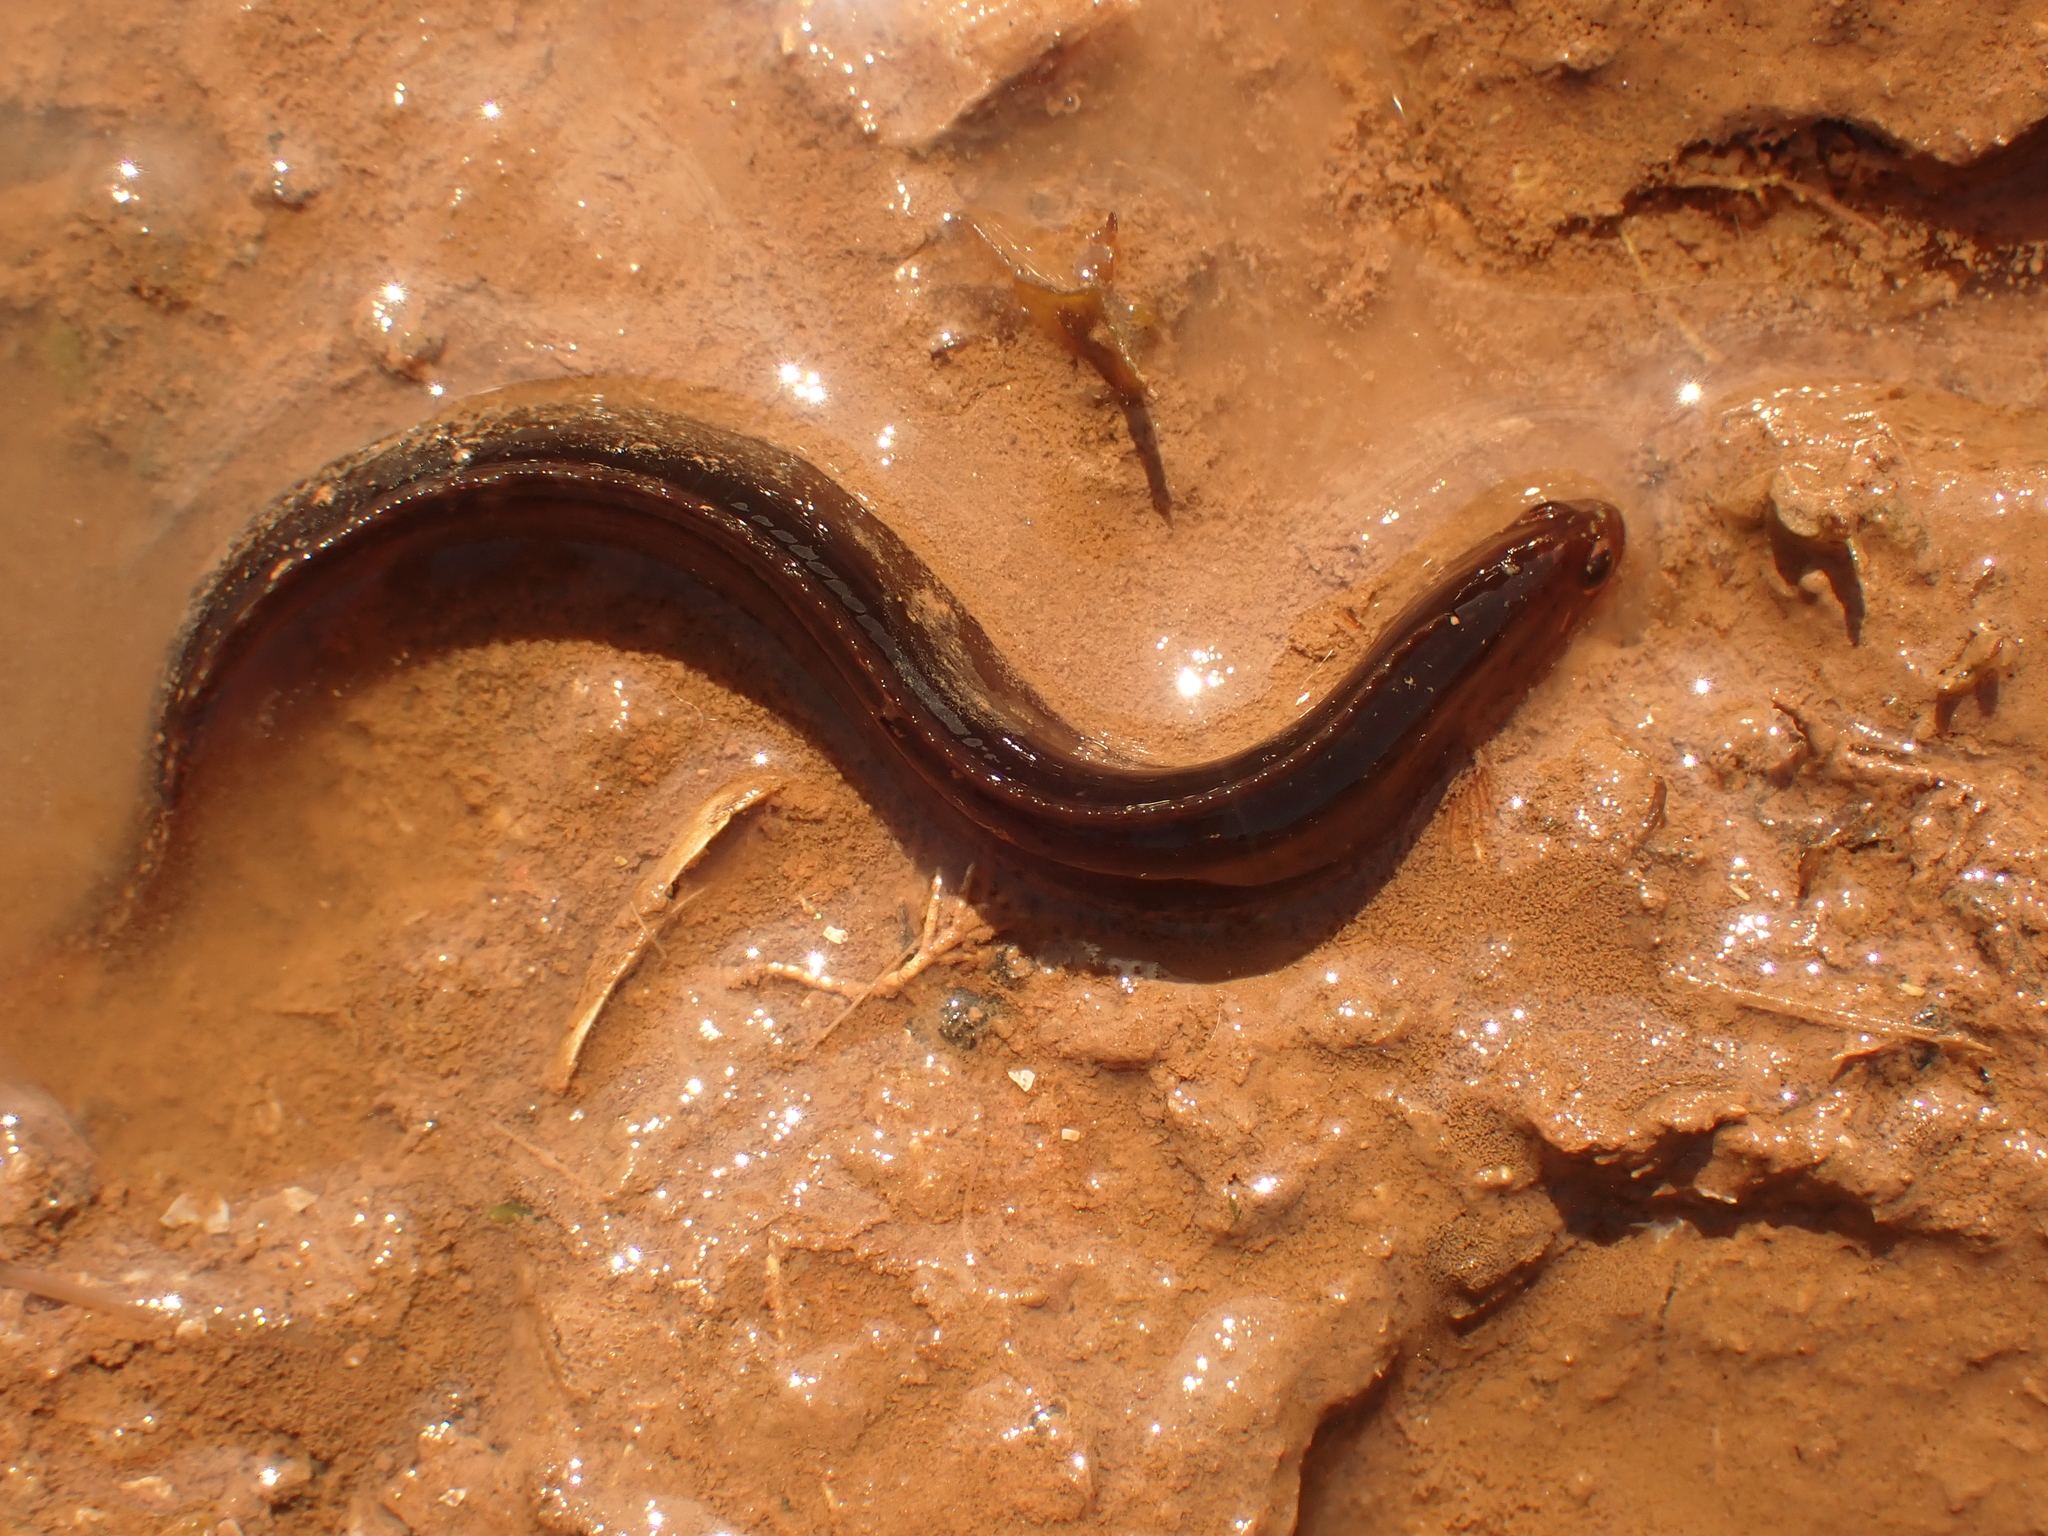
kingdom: Animalia
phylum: Chordata
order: Perciformes
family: Pholidae
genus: Pholis
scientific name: Pholis gunnellus
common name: Butterfish
